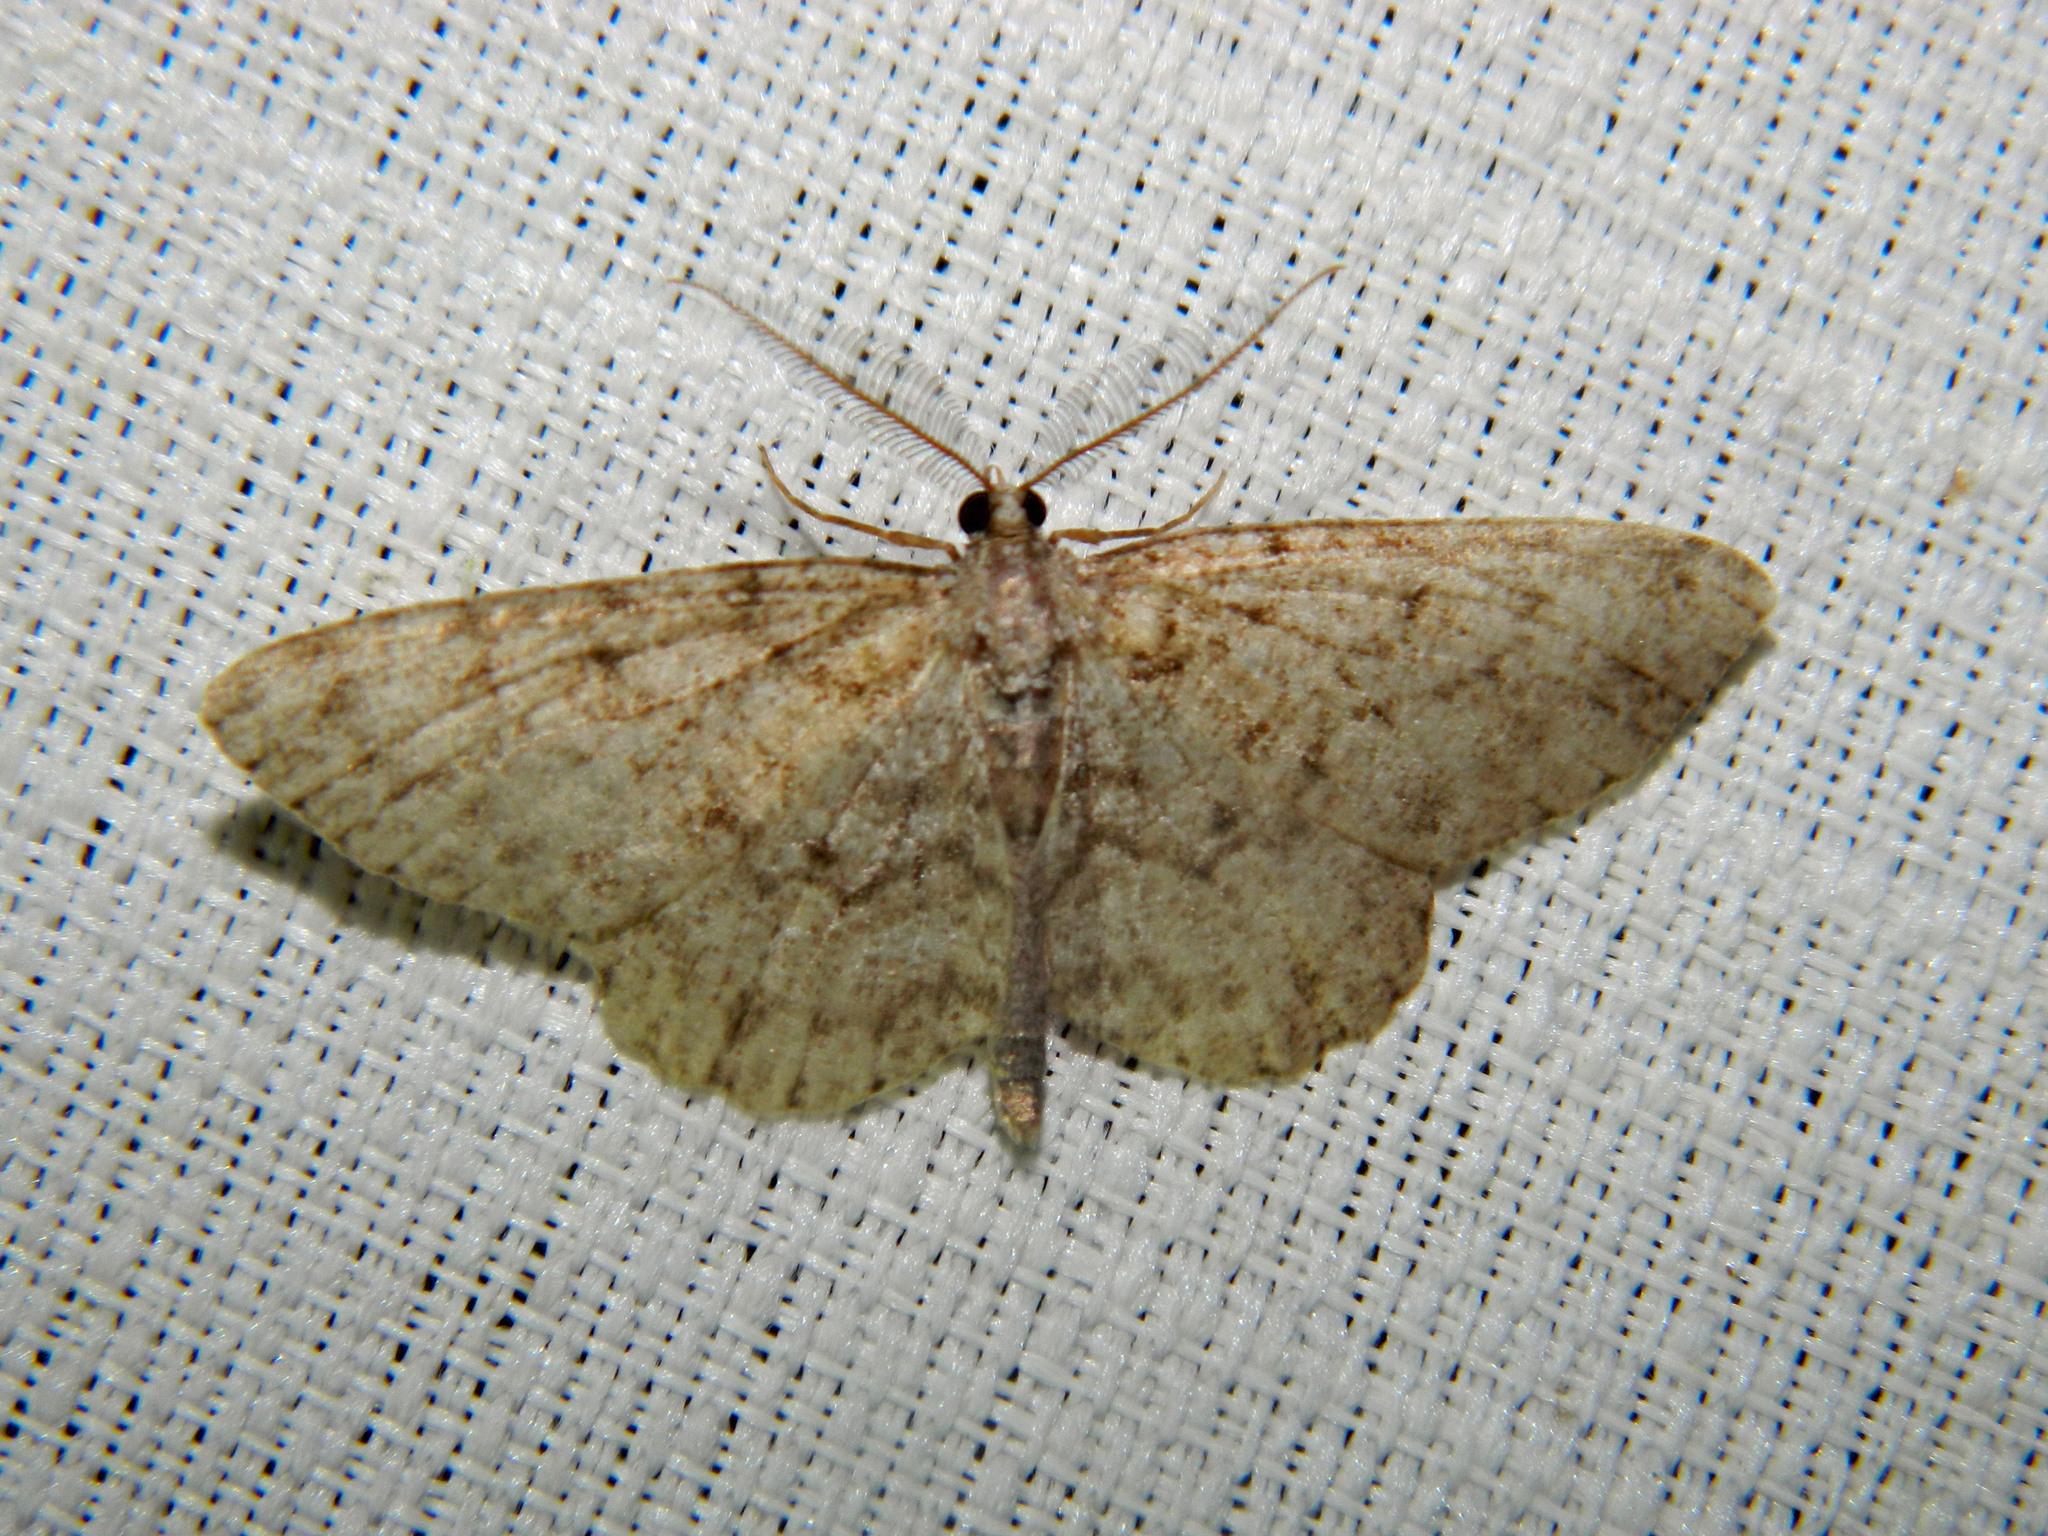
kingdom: Animalia
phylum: Arthropoda
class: Insecta
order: Lepidoptera
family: Geometridae
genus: Protoboarmia
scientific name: Protoboarmia porcelaria
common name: Porcelain gray
